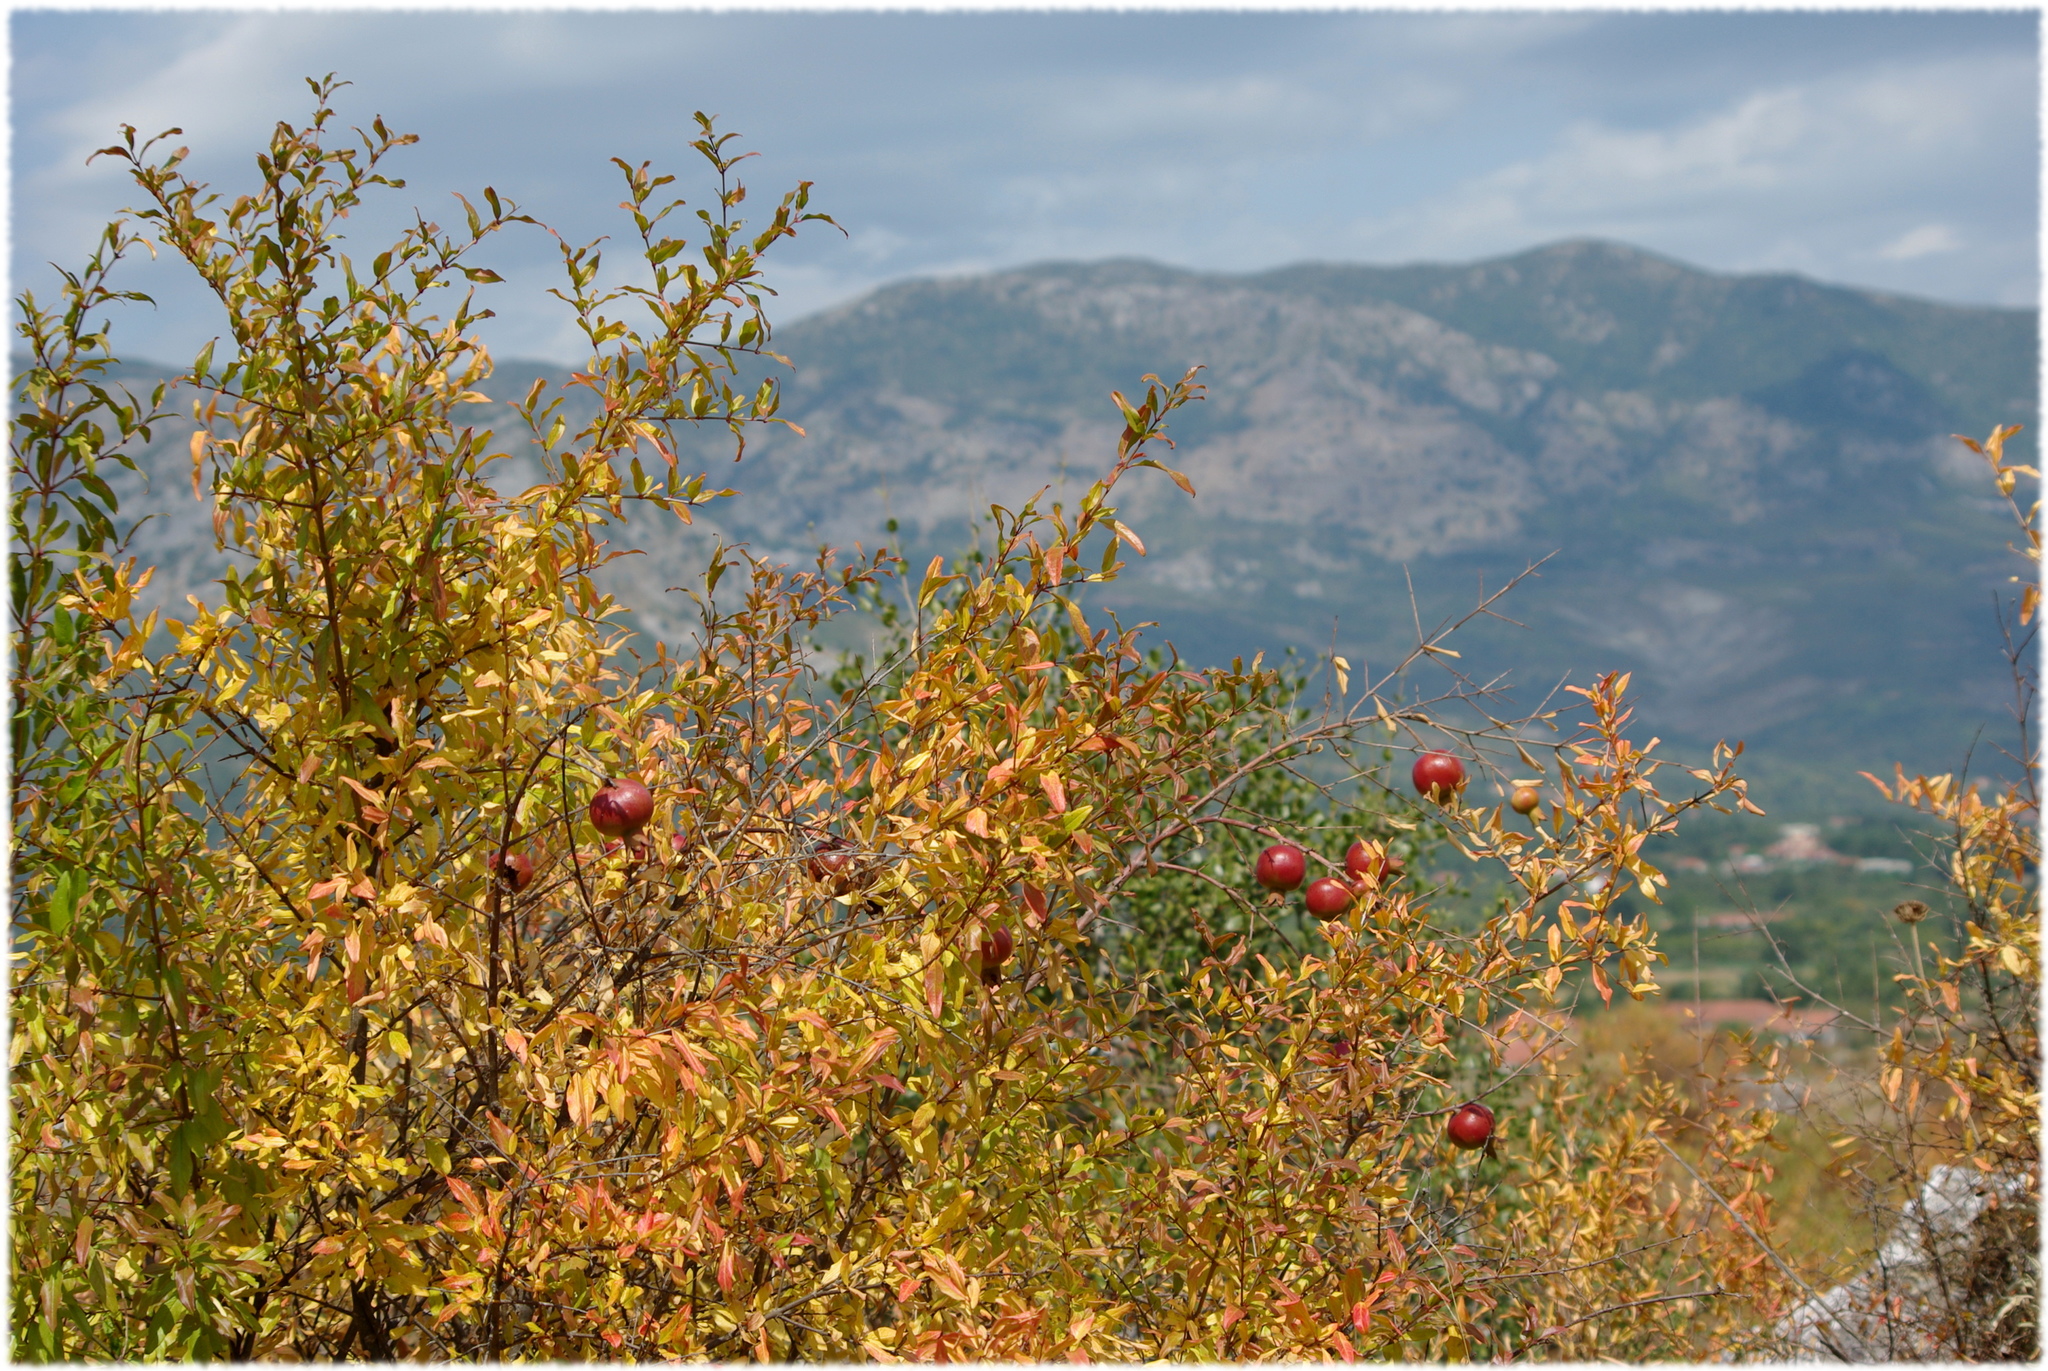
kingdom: Plantae
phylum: Tracheophyta
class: Magnoliopsida
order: Myrtales
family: Lythraceae
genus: Punica
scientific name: Punica granatum
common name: Pomegranate
